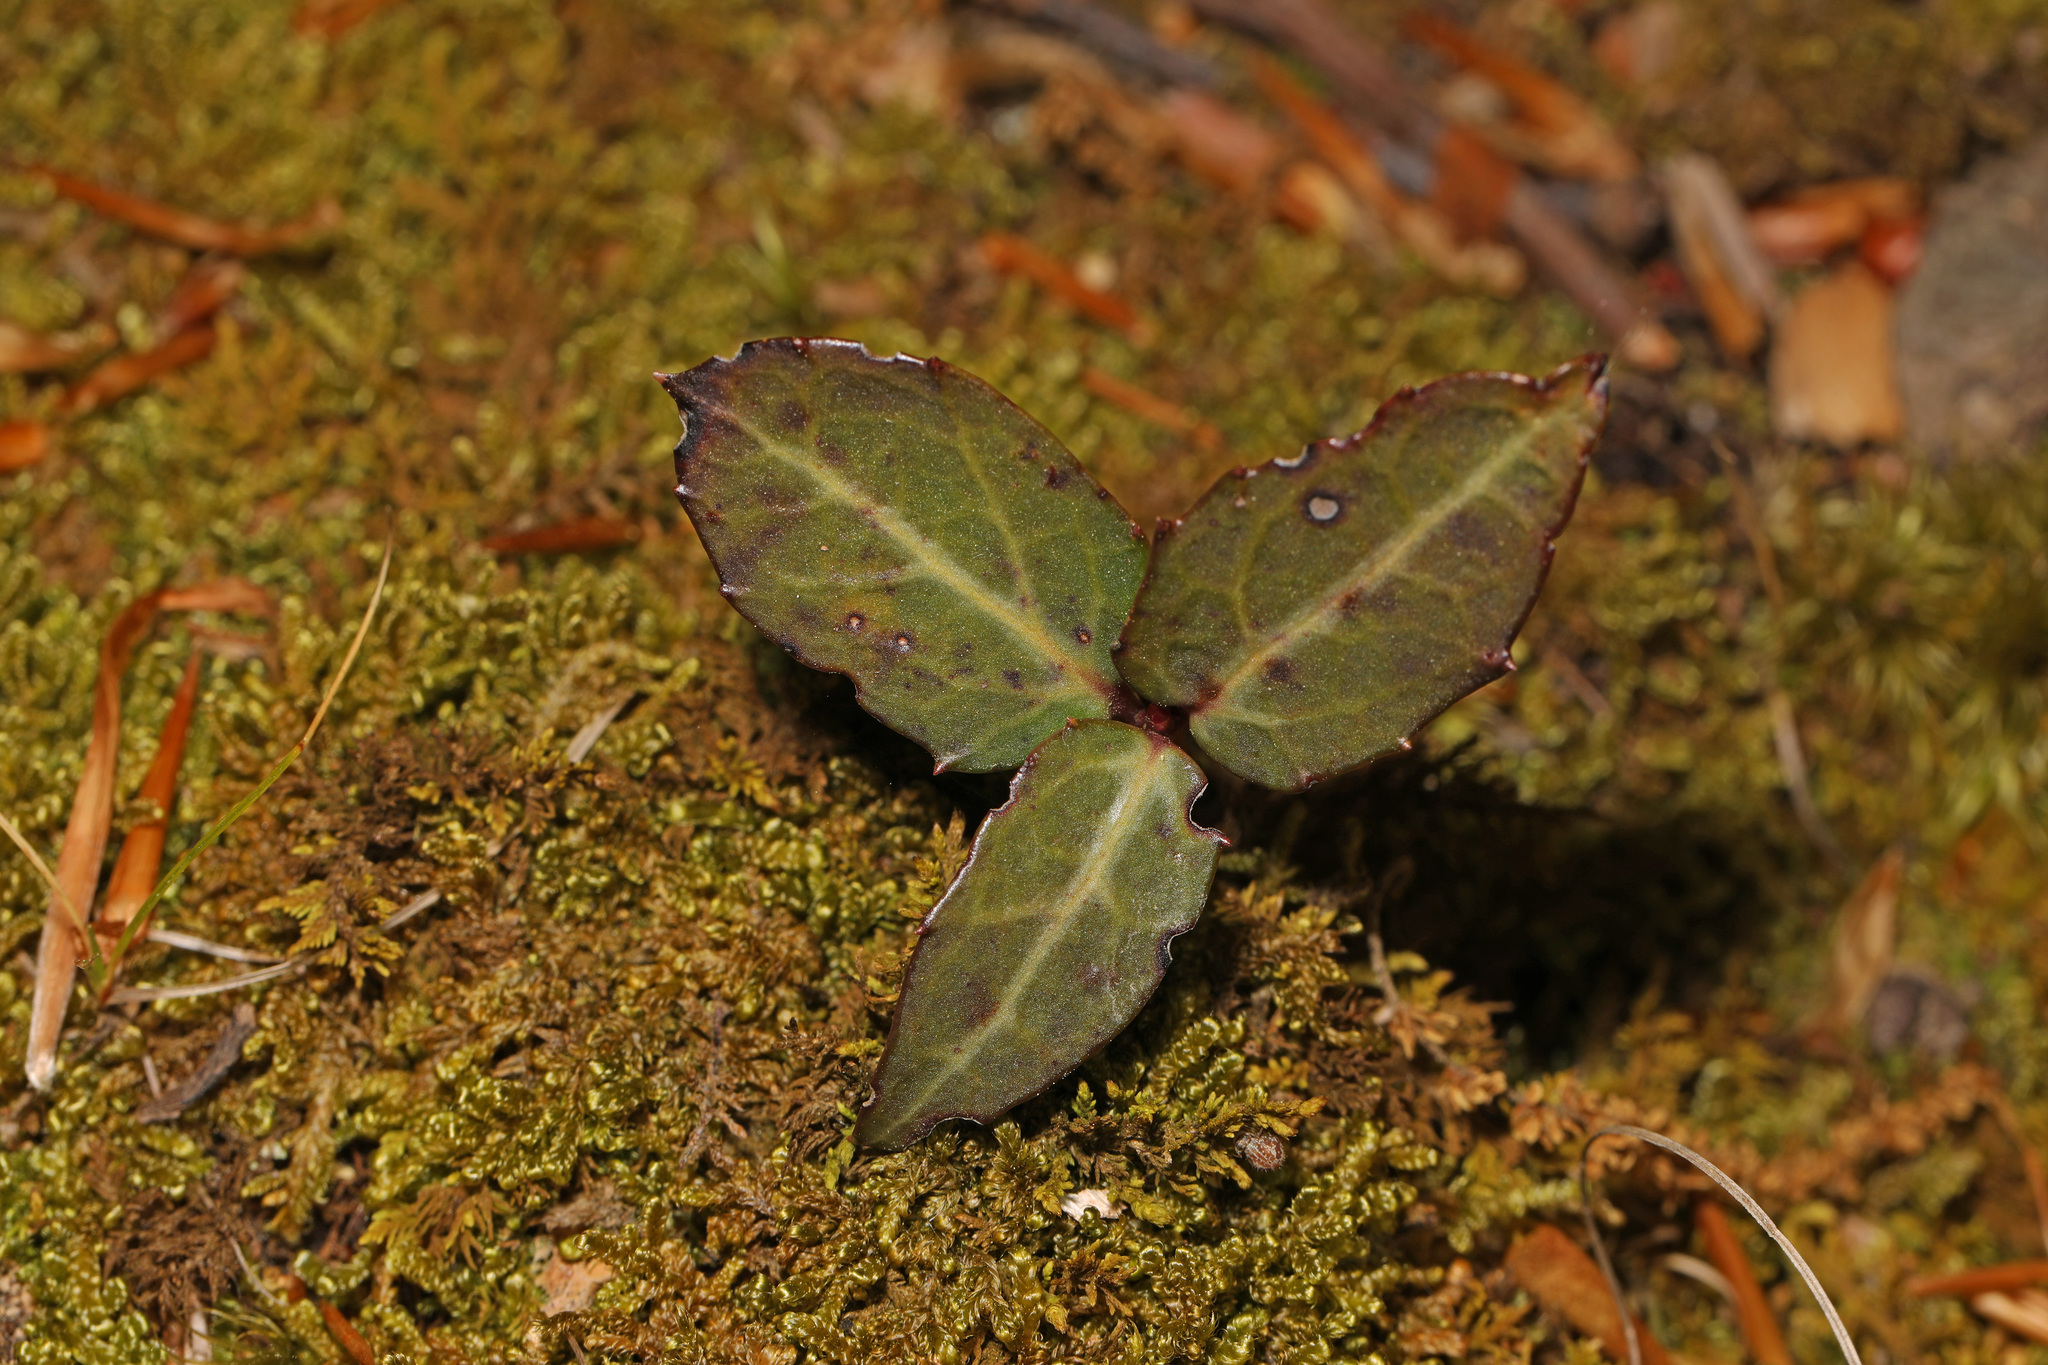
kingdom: Plantae
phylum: Tracheophyta
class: Magnoliopsida
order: Ericales
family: Ericaceae
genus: Chimaphila
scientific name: Chimaphila maculata
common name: Spotted pipsissewa
